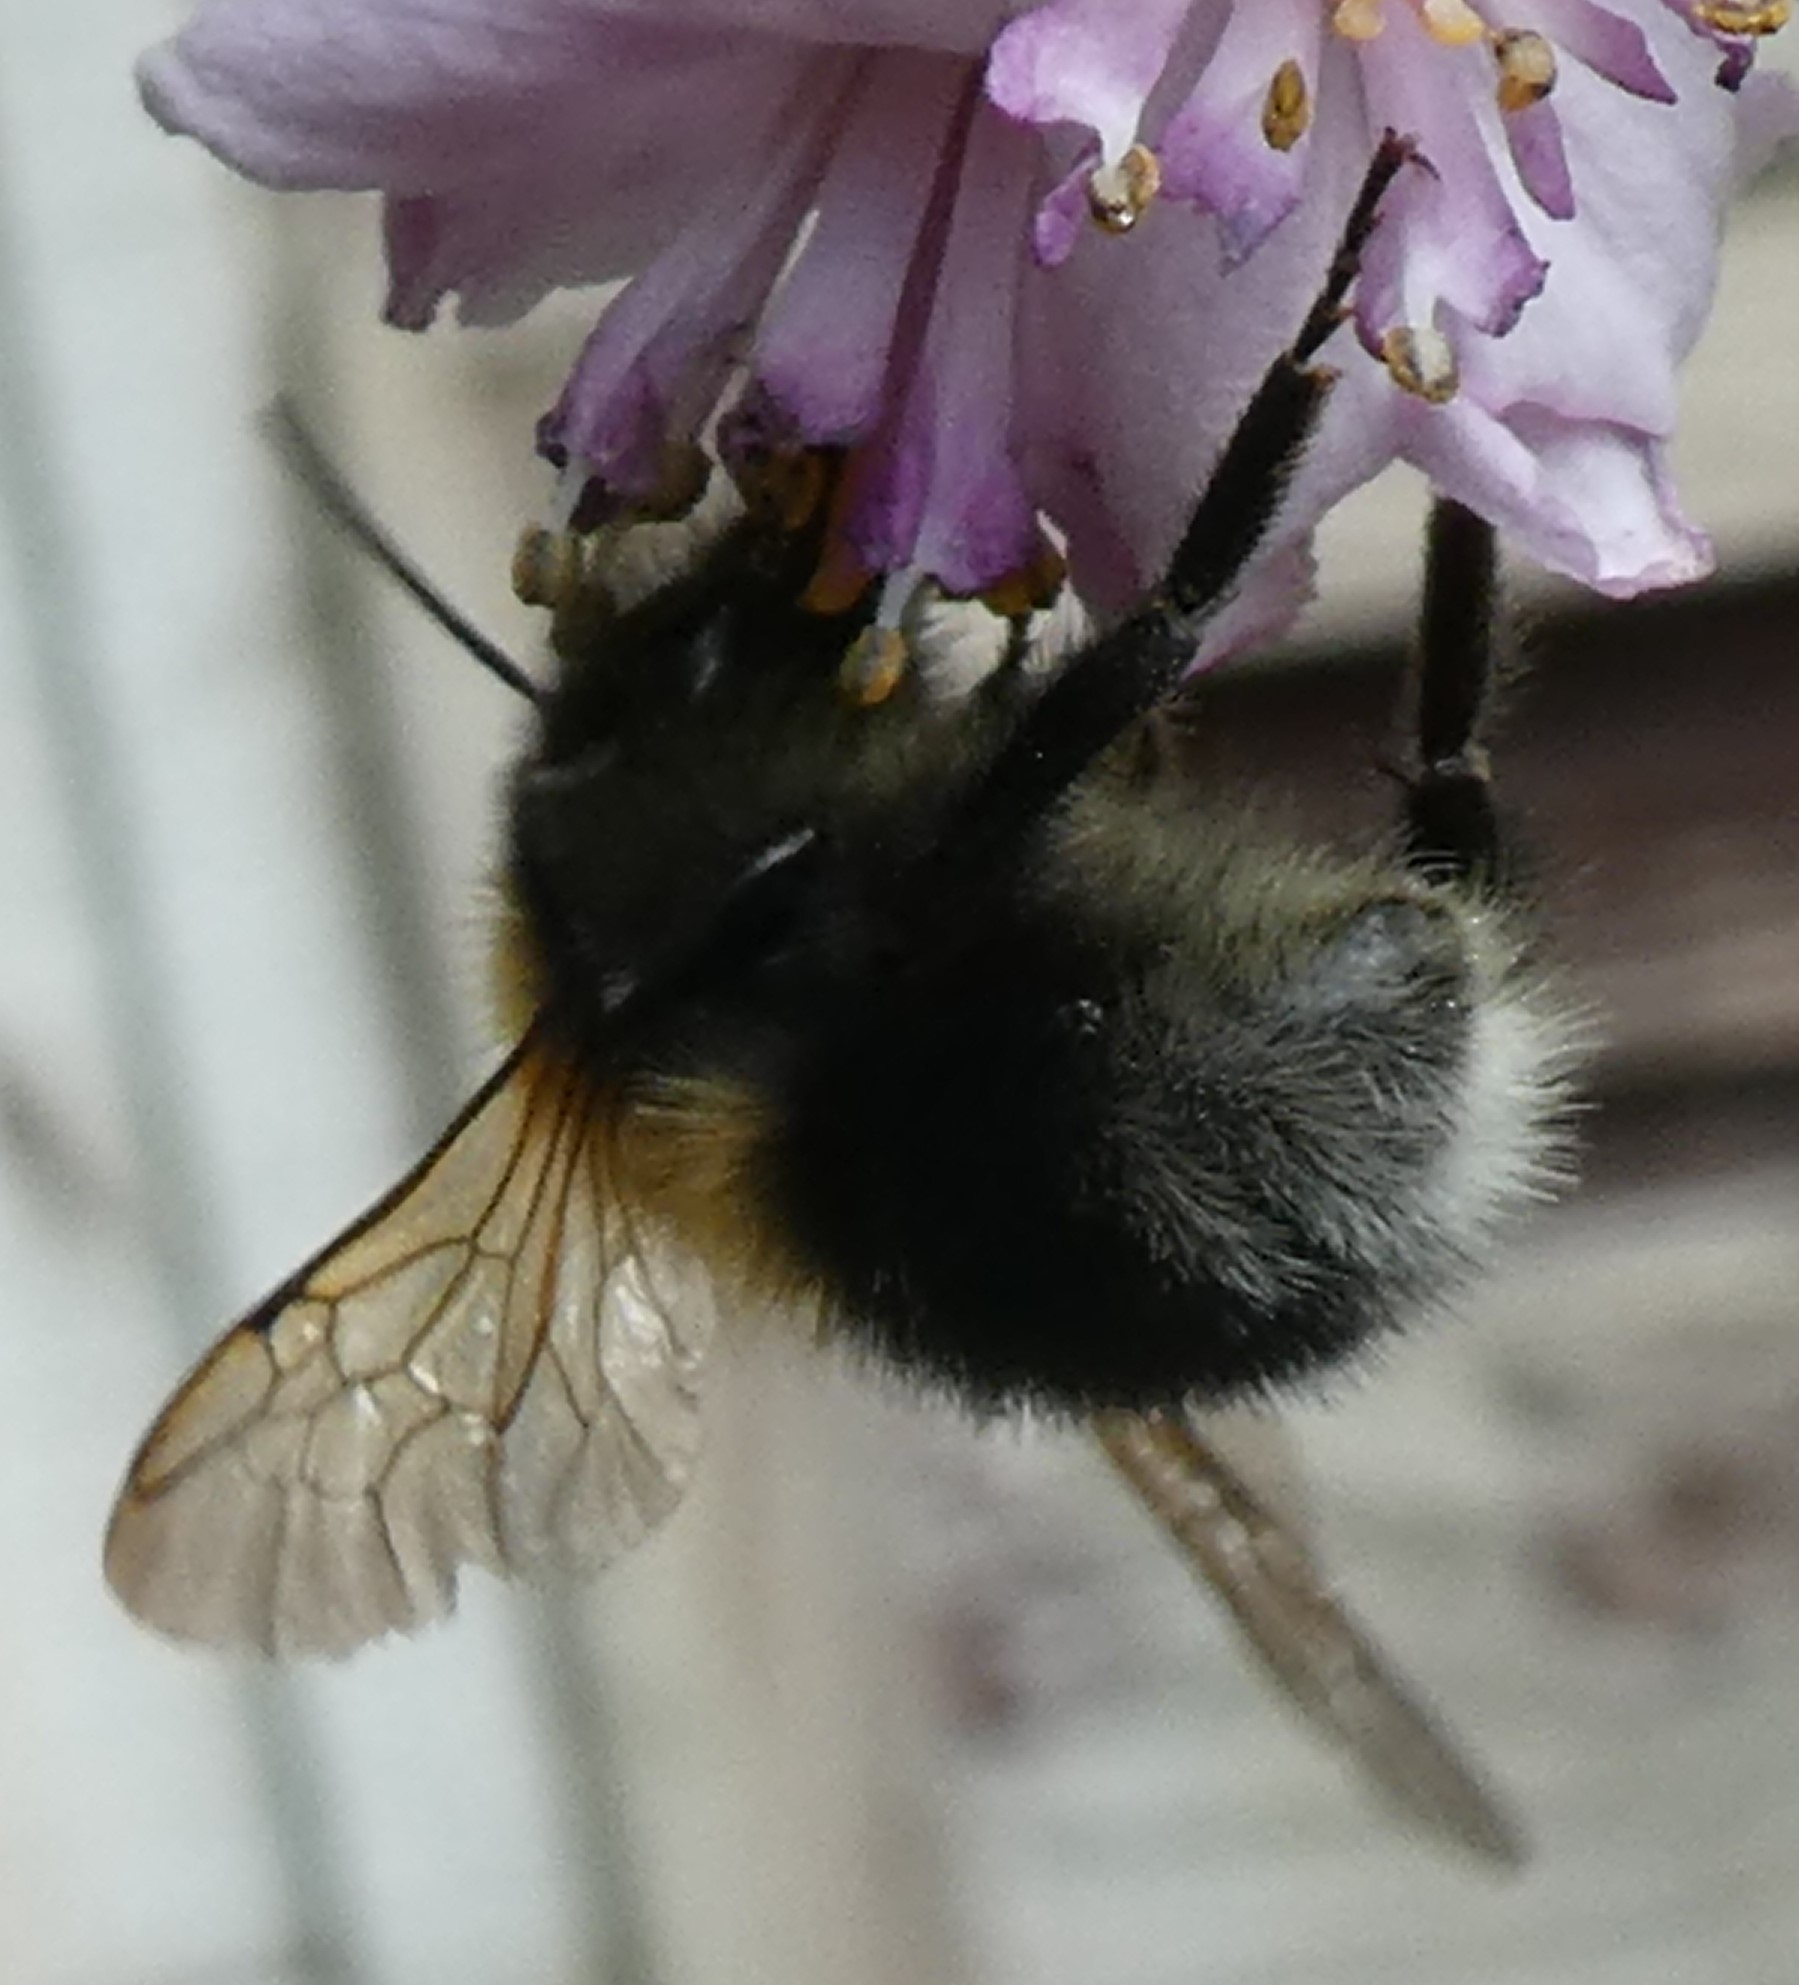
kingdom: Animalia
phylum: Arthropoda
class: Insecta
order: Hymenoptera
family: Apidae
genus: Bombus
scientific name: Bombus hypnorum
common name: New garden bumblebee
